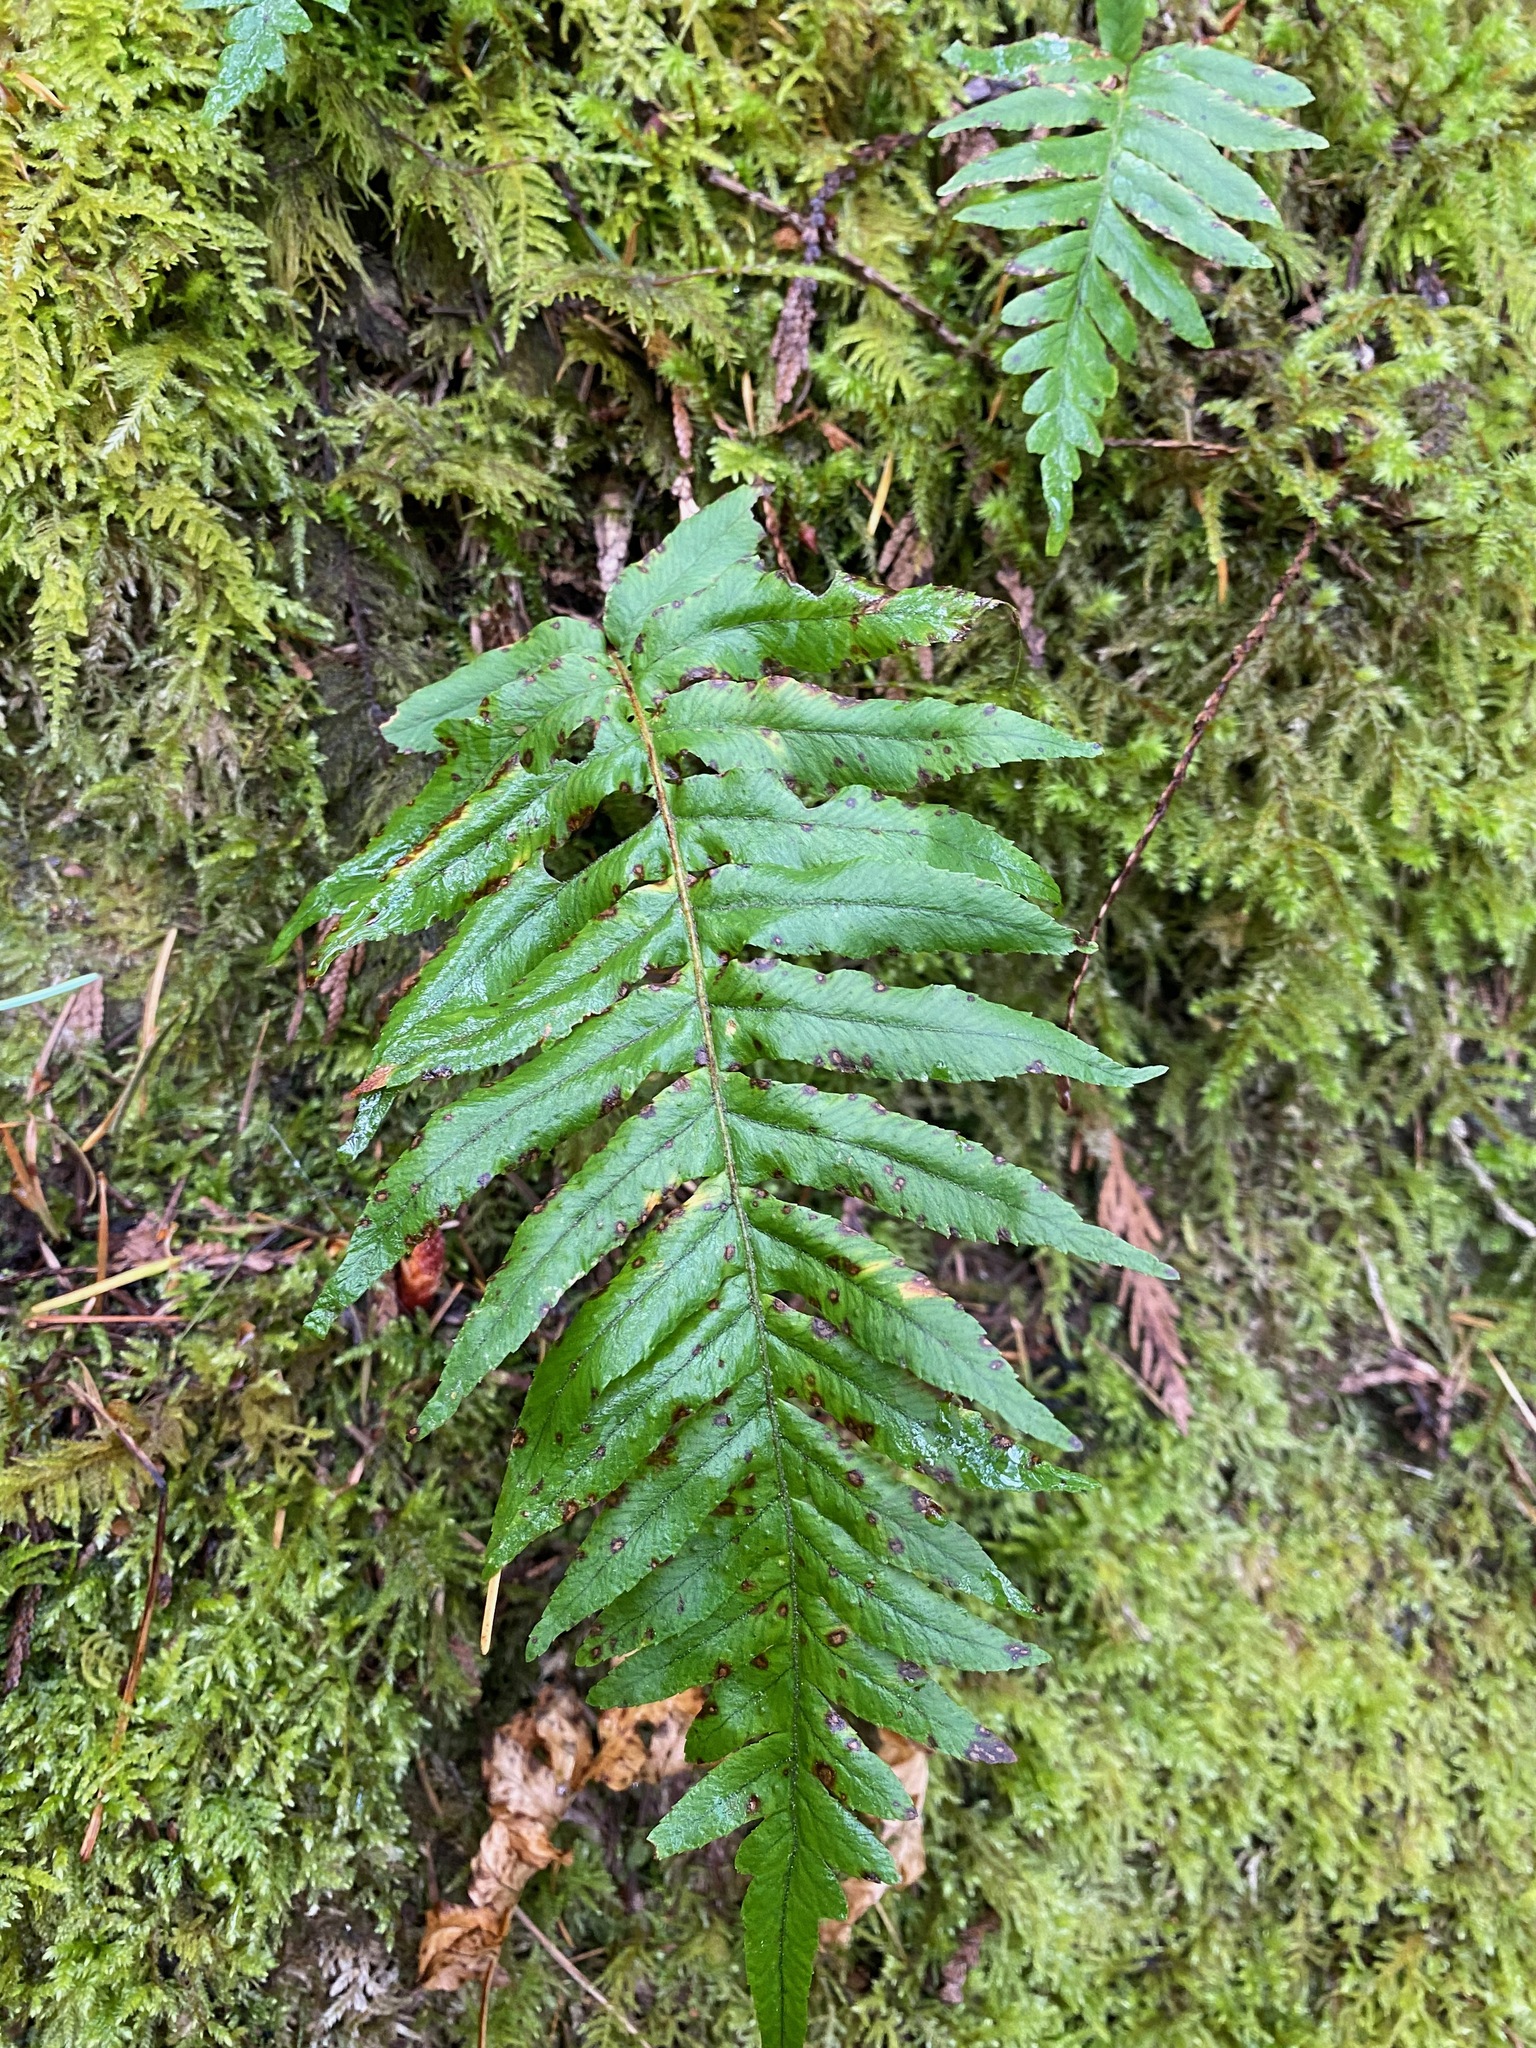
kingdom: Plantae
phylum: Tracheophyta
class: Polypodiopsida
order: Polypodiales
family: Polypodiaceae
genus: Polypodium
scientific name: Polypodium glycyrrhiza
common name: Licorice fern
